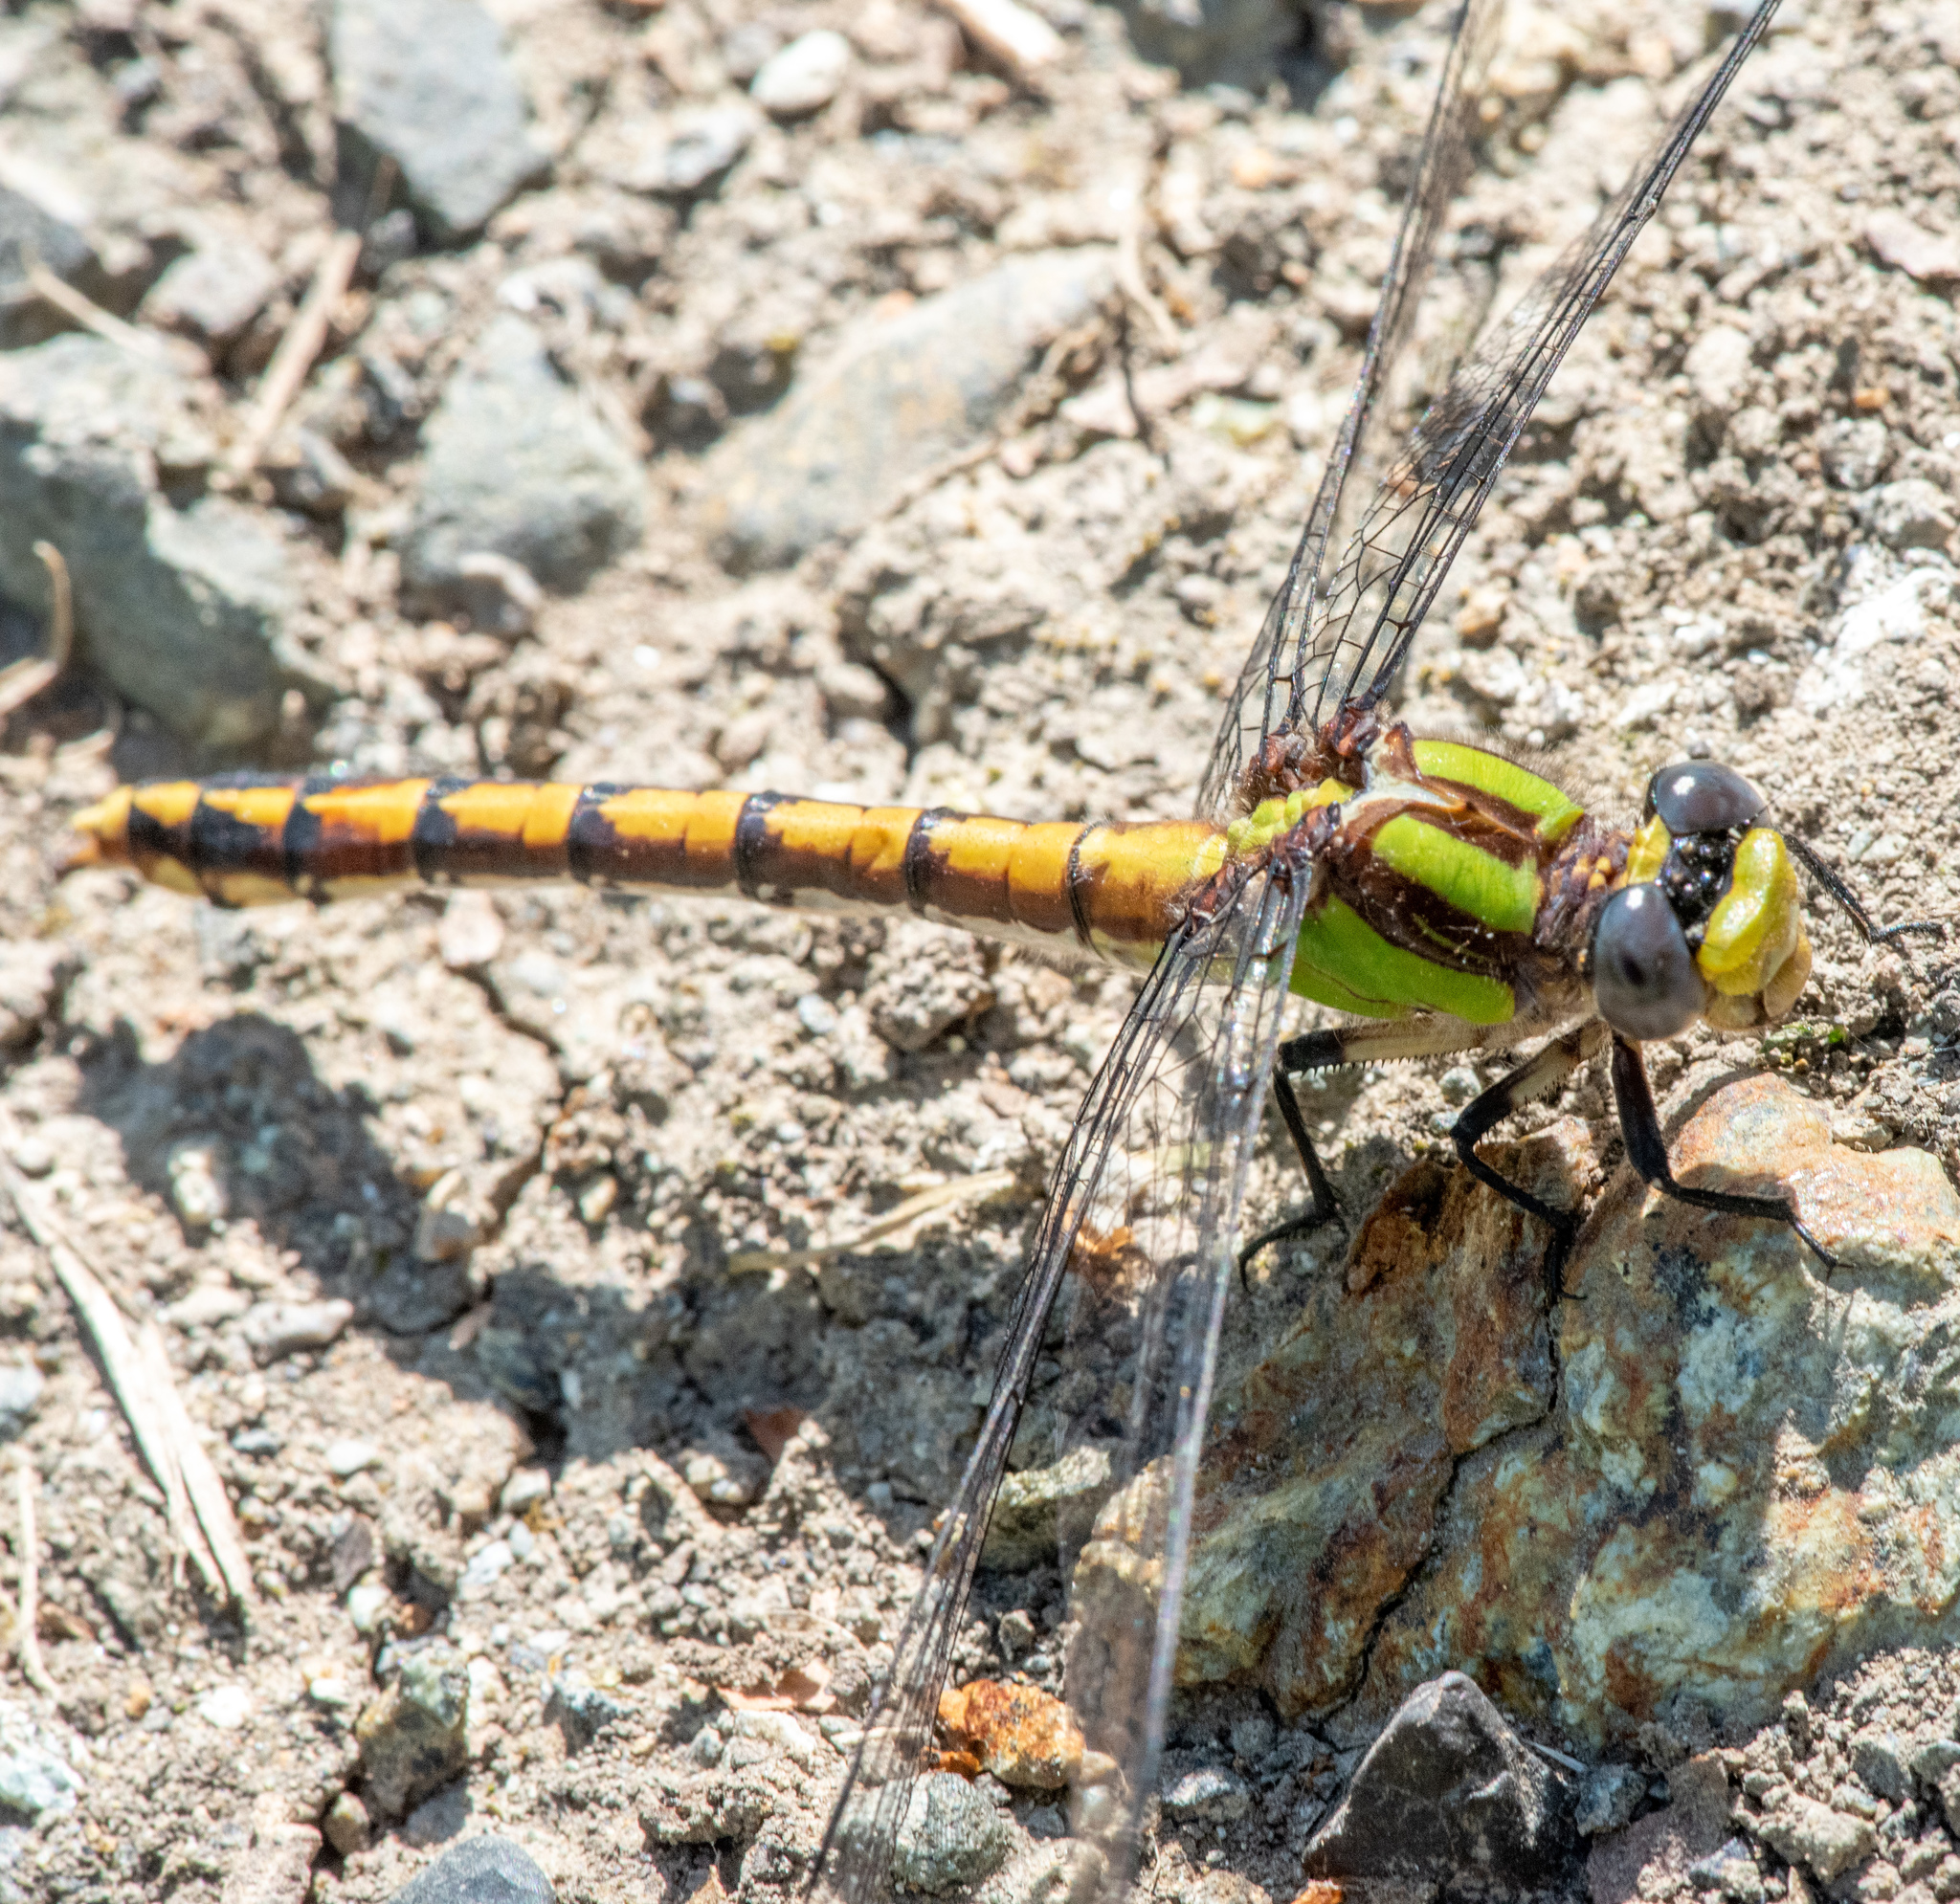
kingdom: Animalia
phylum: Arthropoda
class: Insecta
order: Odonata
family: Gomphidae
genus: Ophiogomphus
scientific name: Ophiogomphus bison
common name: Bison snaketail
